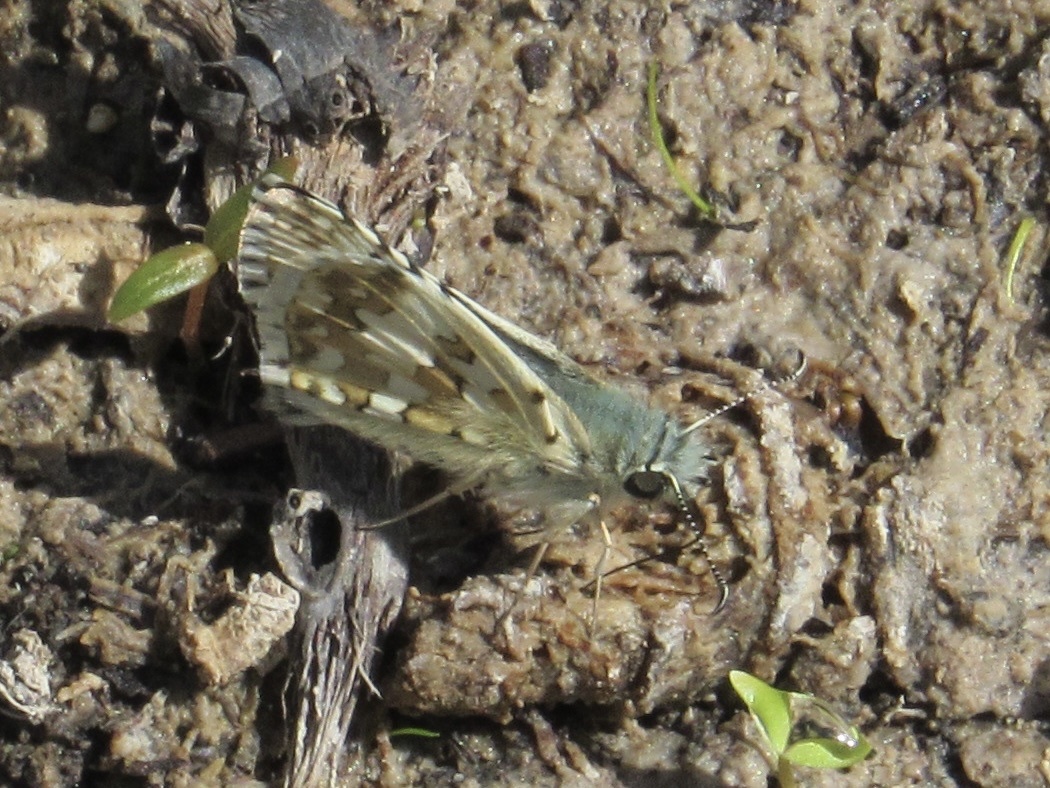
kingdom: Animalia
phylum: Arthropoda
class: Insecta
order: Lepidoptera
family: Hesperiidae
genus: Burnsius
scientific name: Burnsius communis
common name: Common checkered-skipper
